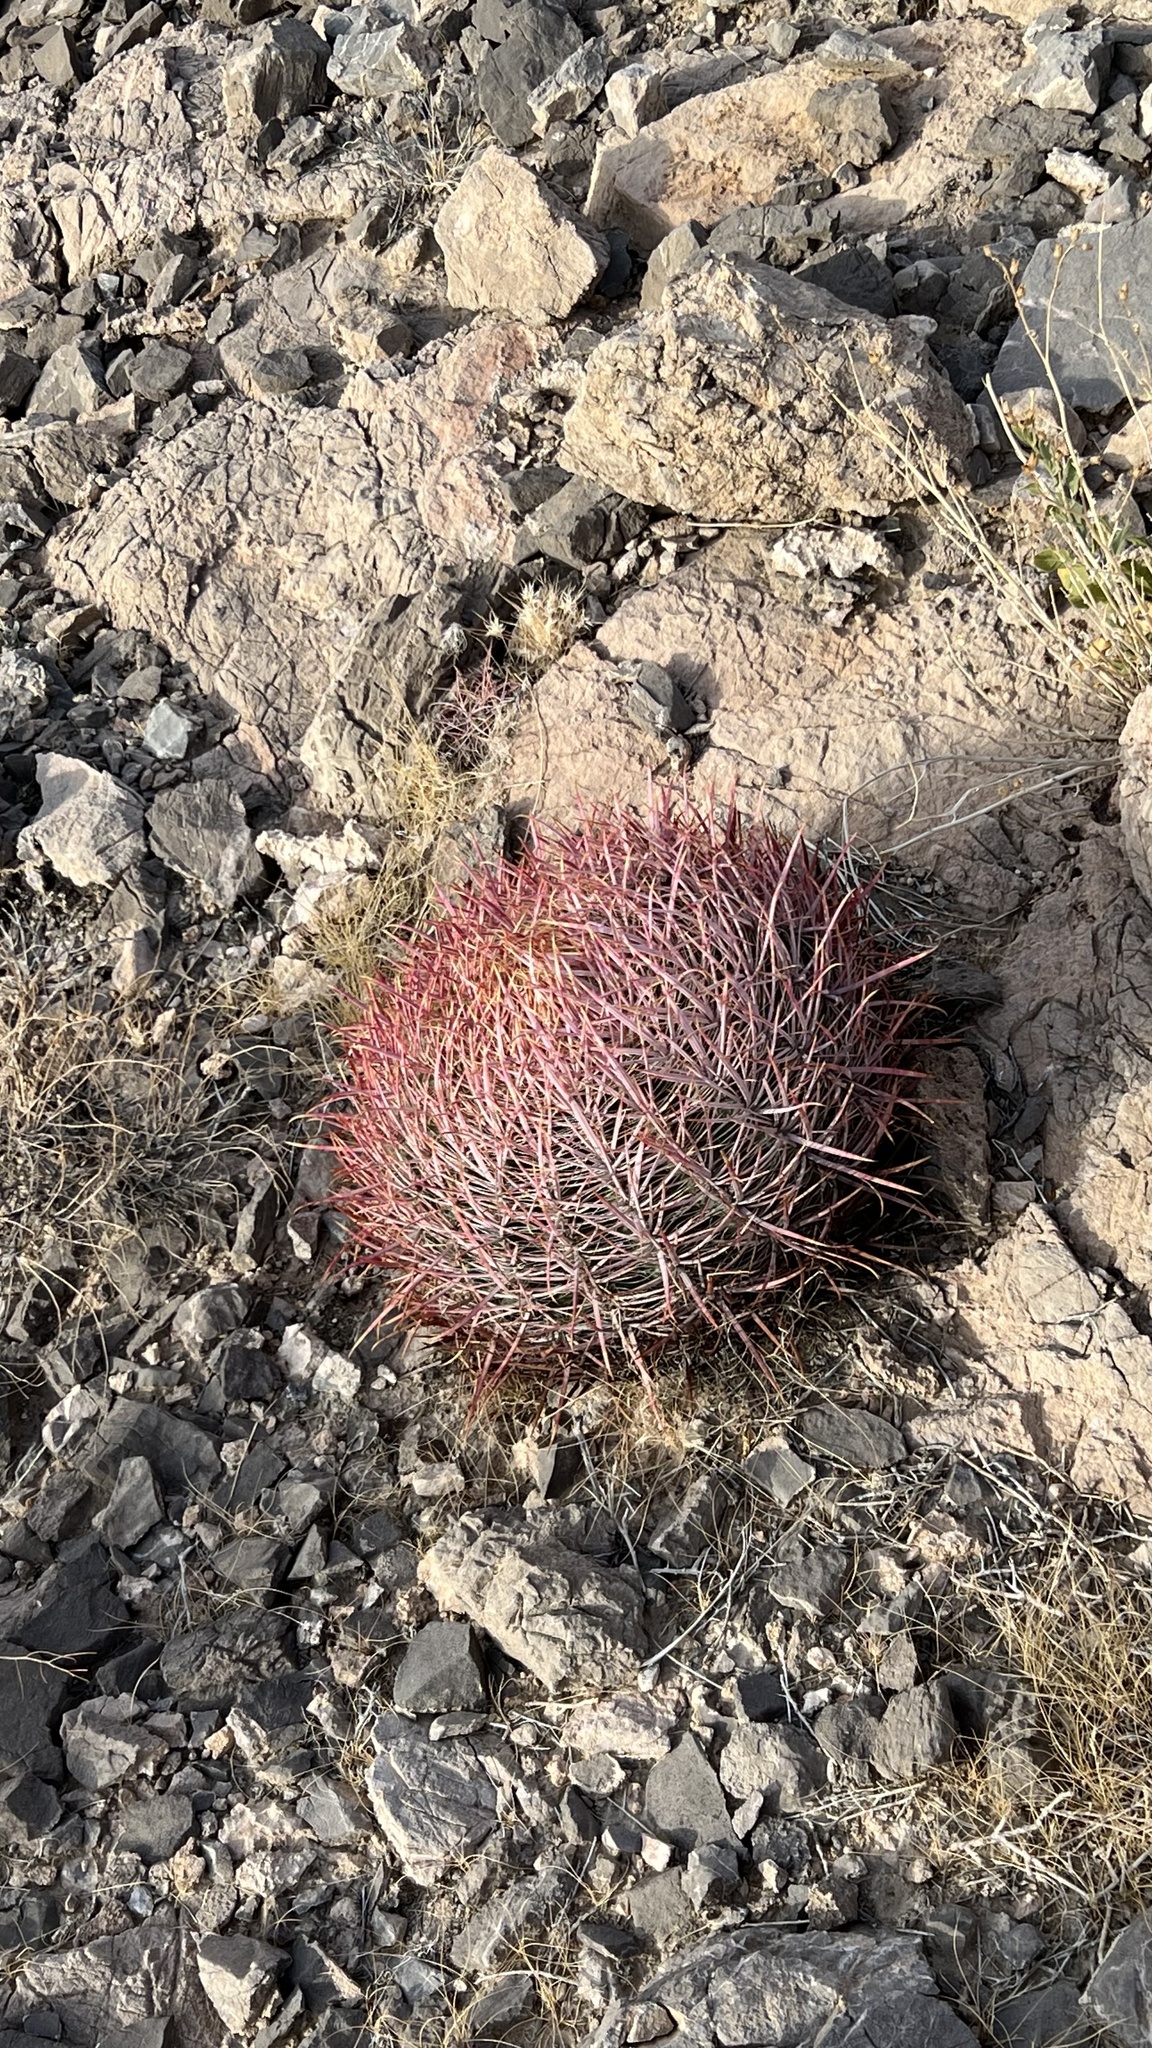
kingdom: Plantae
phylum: Tracheophyta
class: Magnoliopsida
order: Caryophyllales
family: Cactaceae
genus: Ferocactus
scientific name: Ferocactus cylindraceus
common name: California barrel cactus
